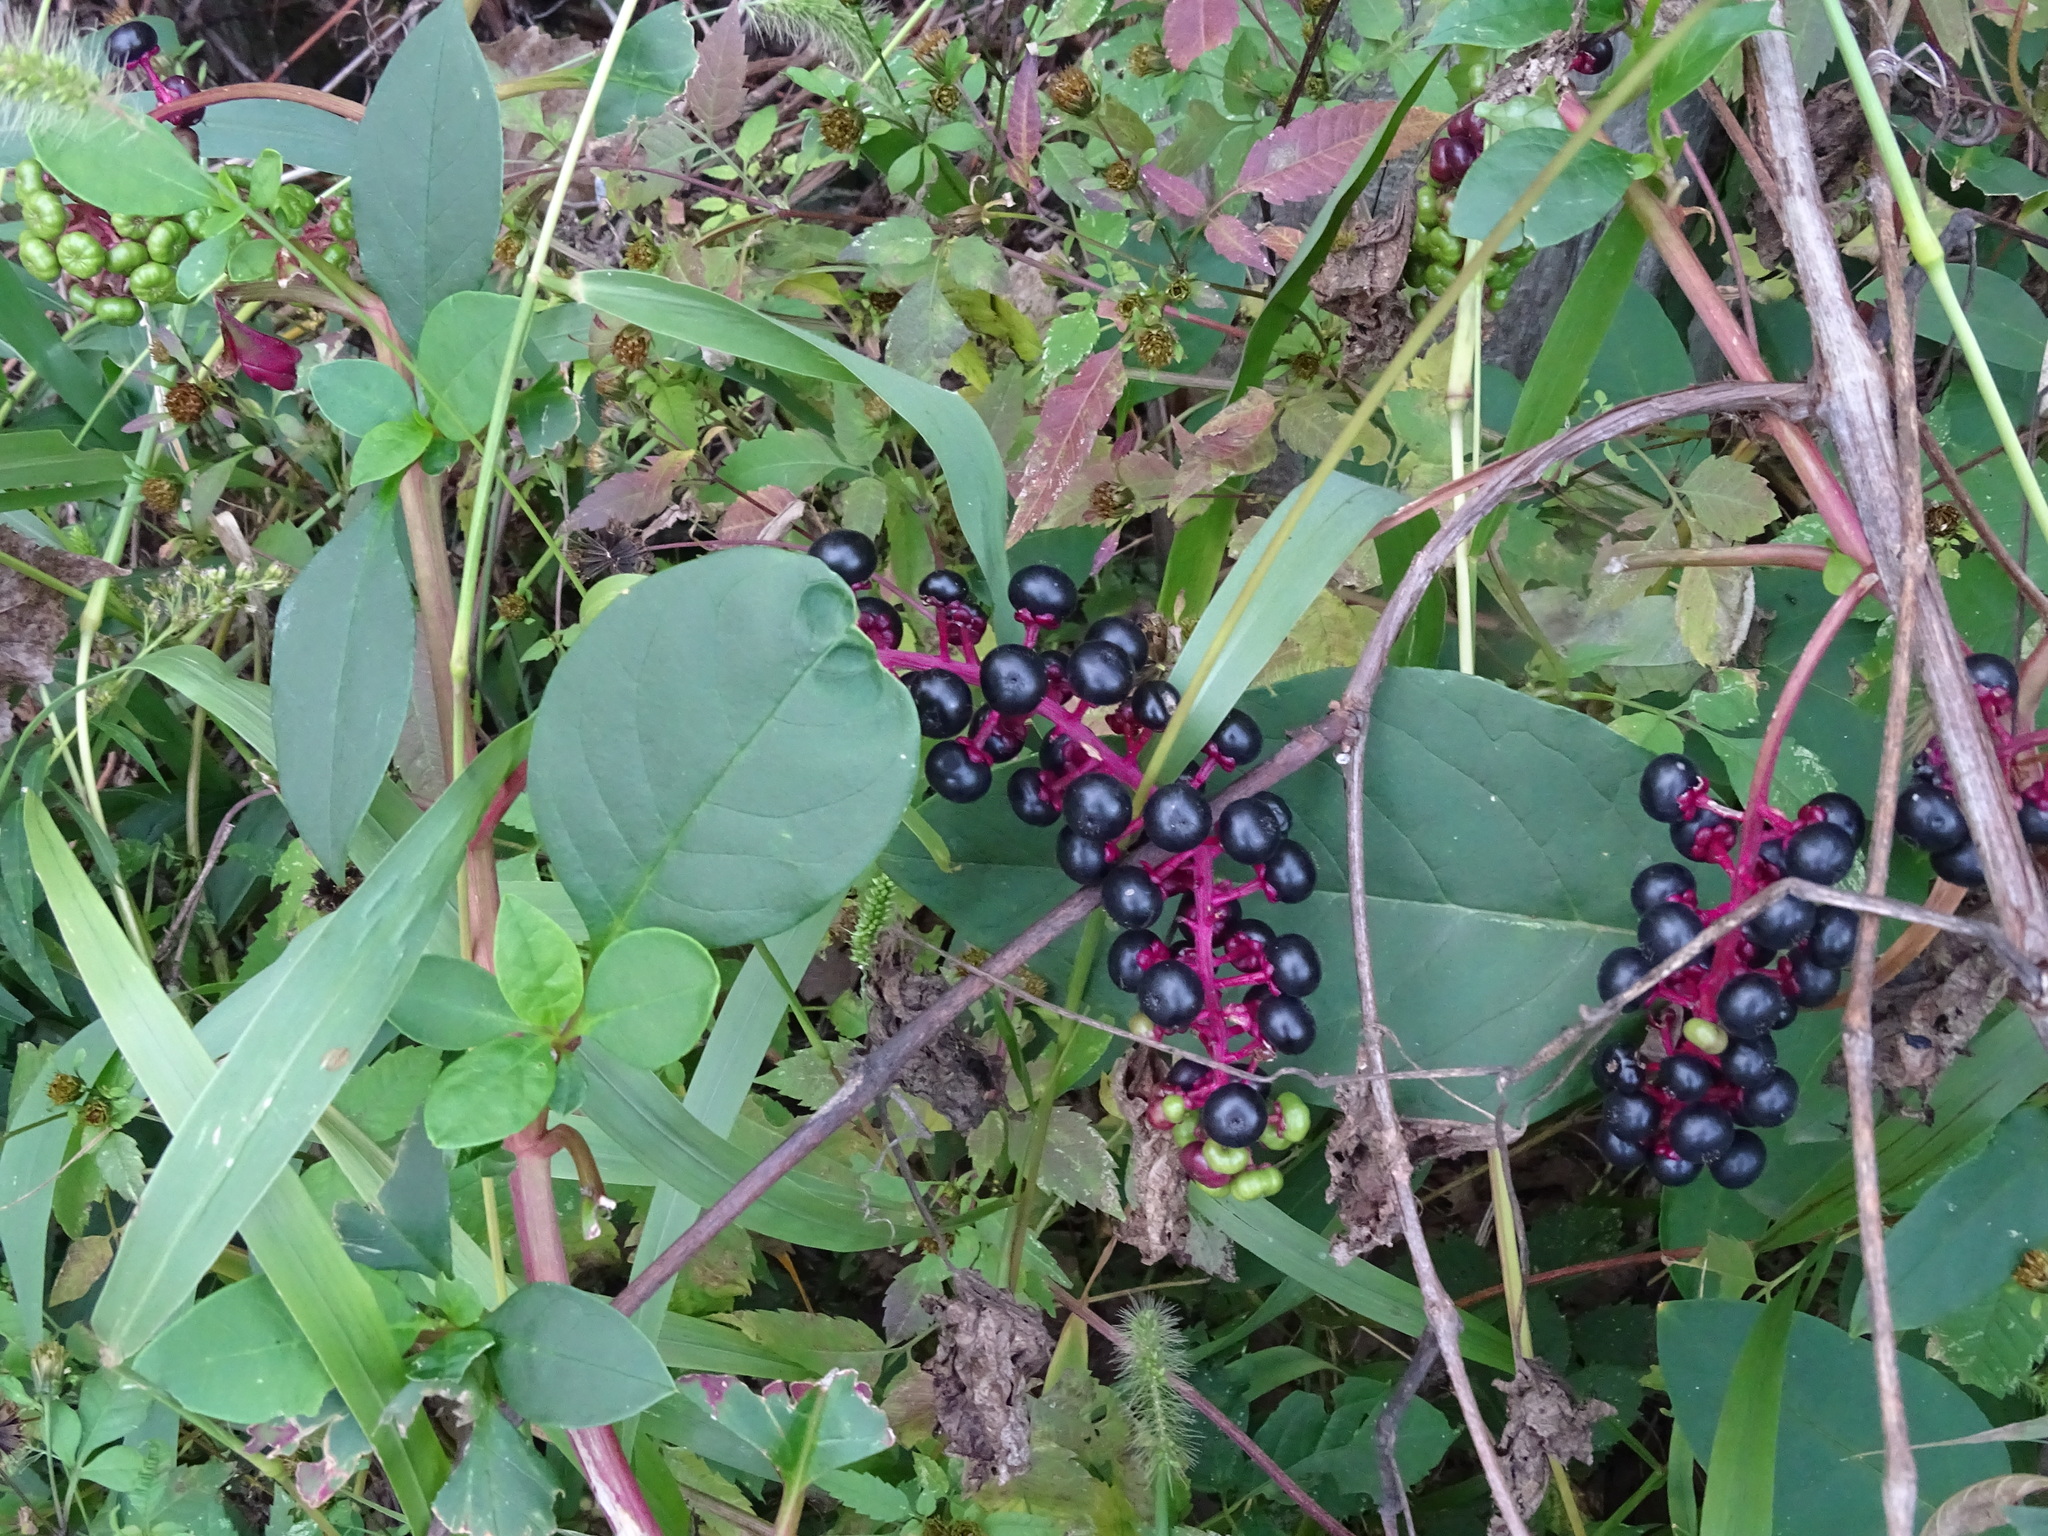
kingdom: Plantae
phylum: Tracheophyta
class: Magnoliopsida
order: Caryophyllales
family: Phytolaccaceae
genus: Phytolacca
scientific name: Phytolacca americana
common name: American pokeweed
